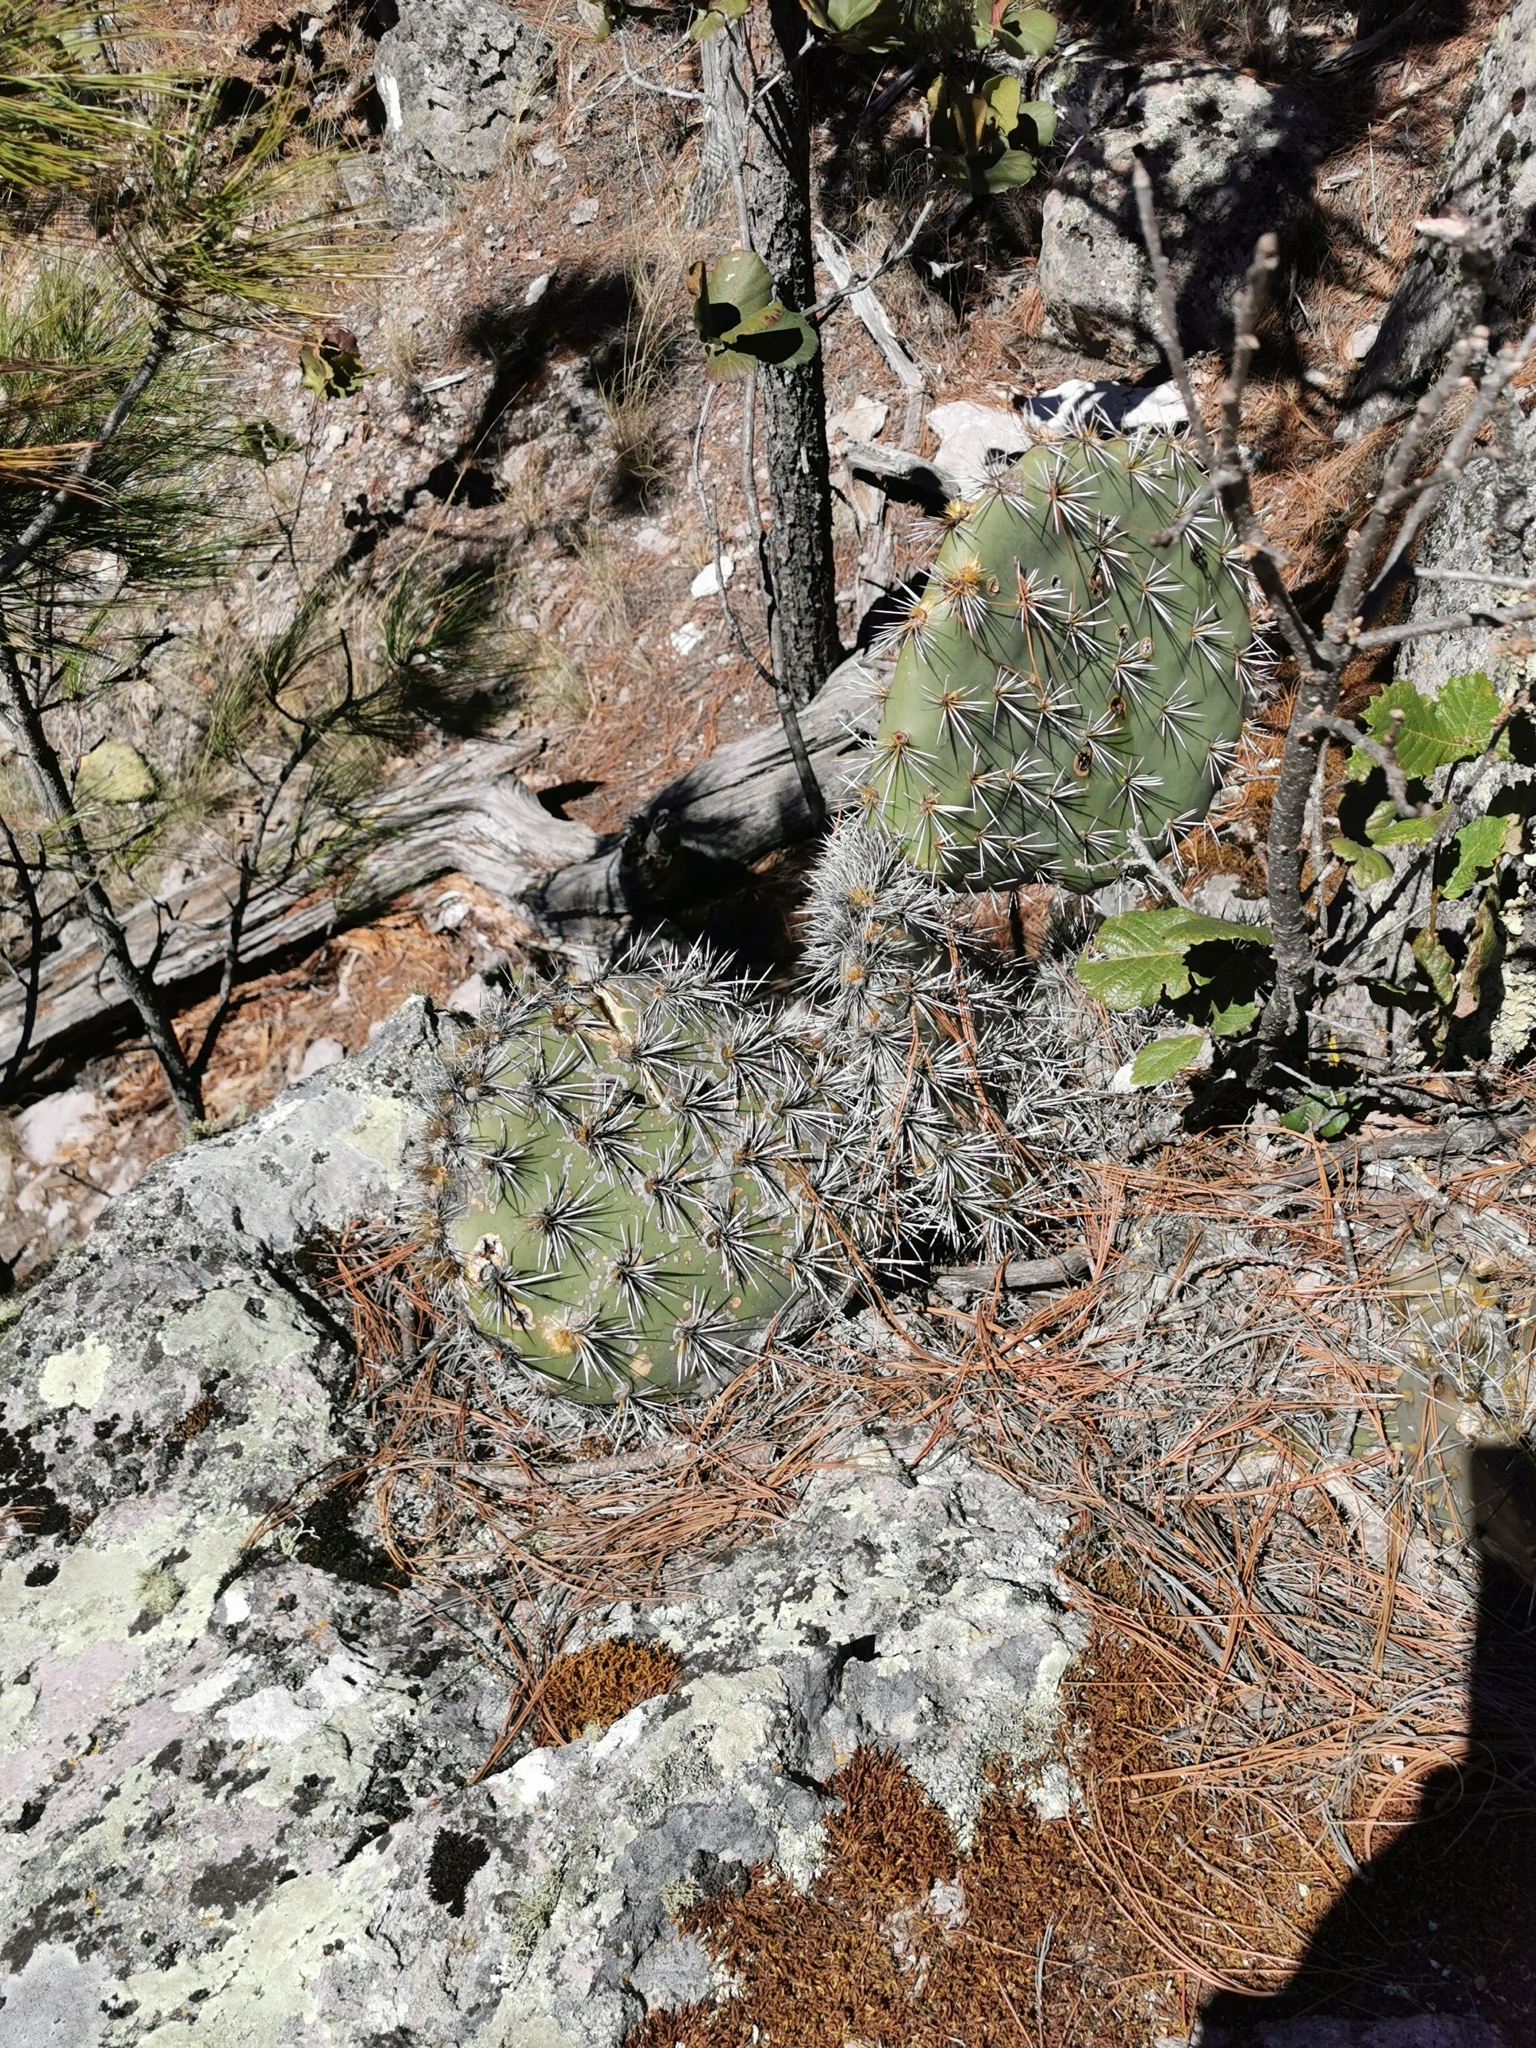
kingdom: Plantae
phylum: Tracheophyta
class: Magnoliopsida
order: Caryophyllales
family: Cactaceae
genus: Opuntia
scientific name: Opuntia robusta
